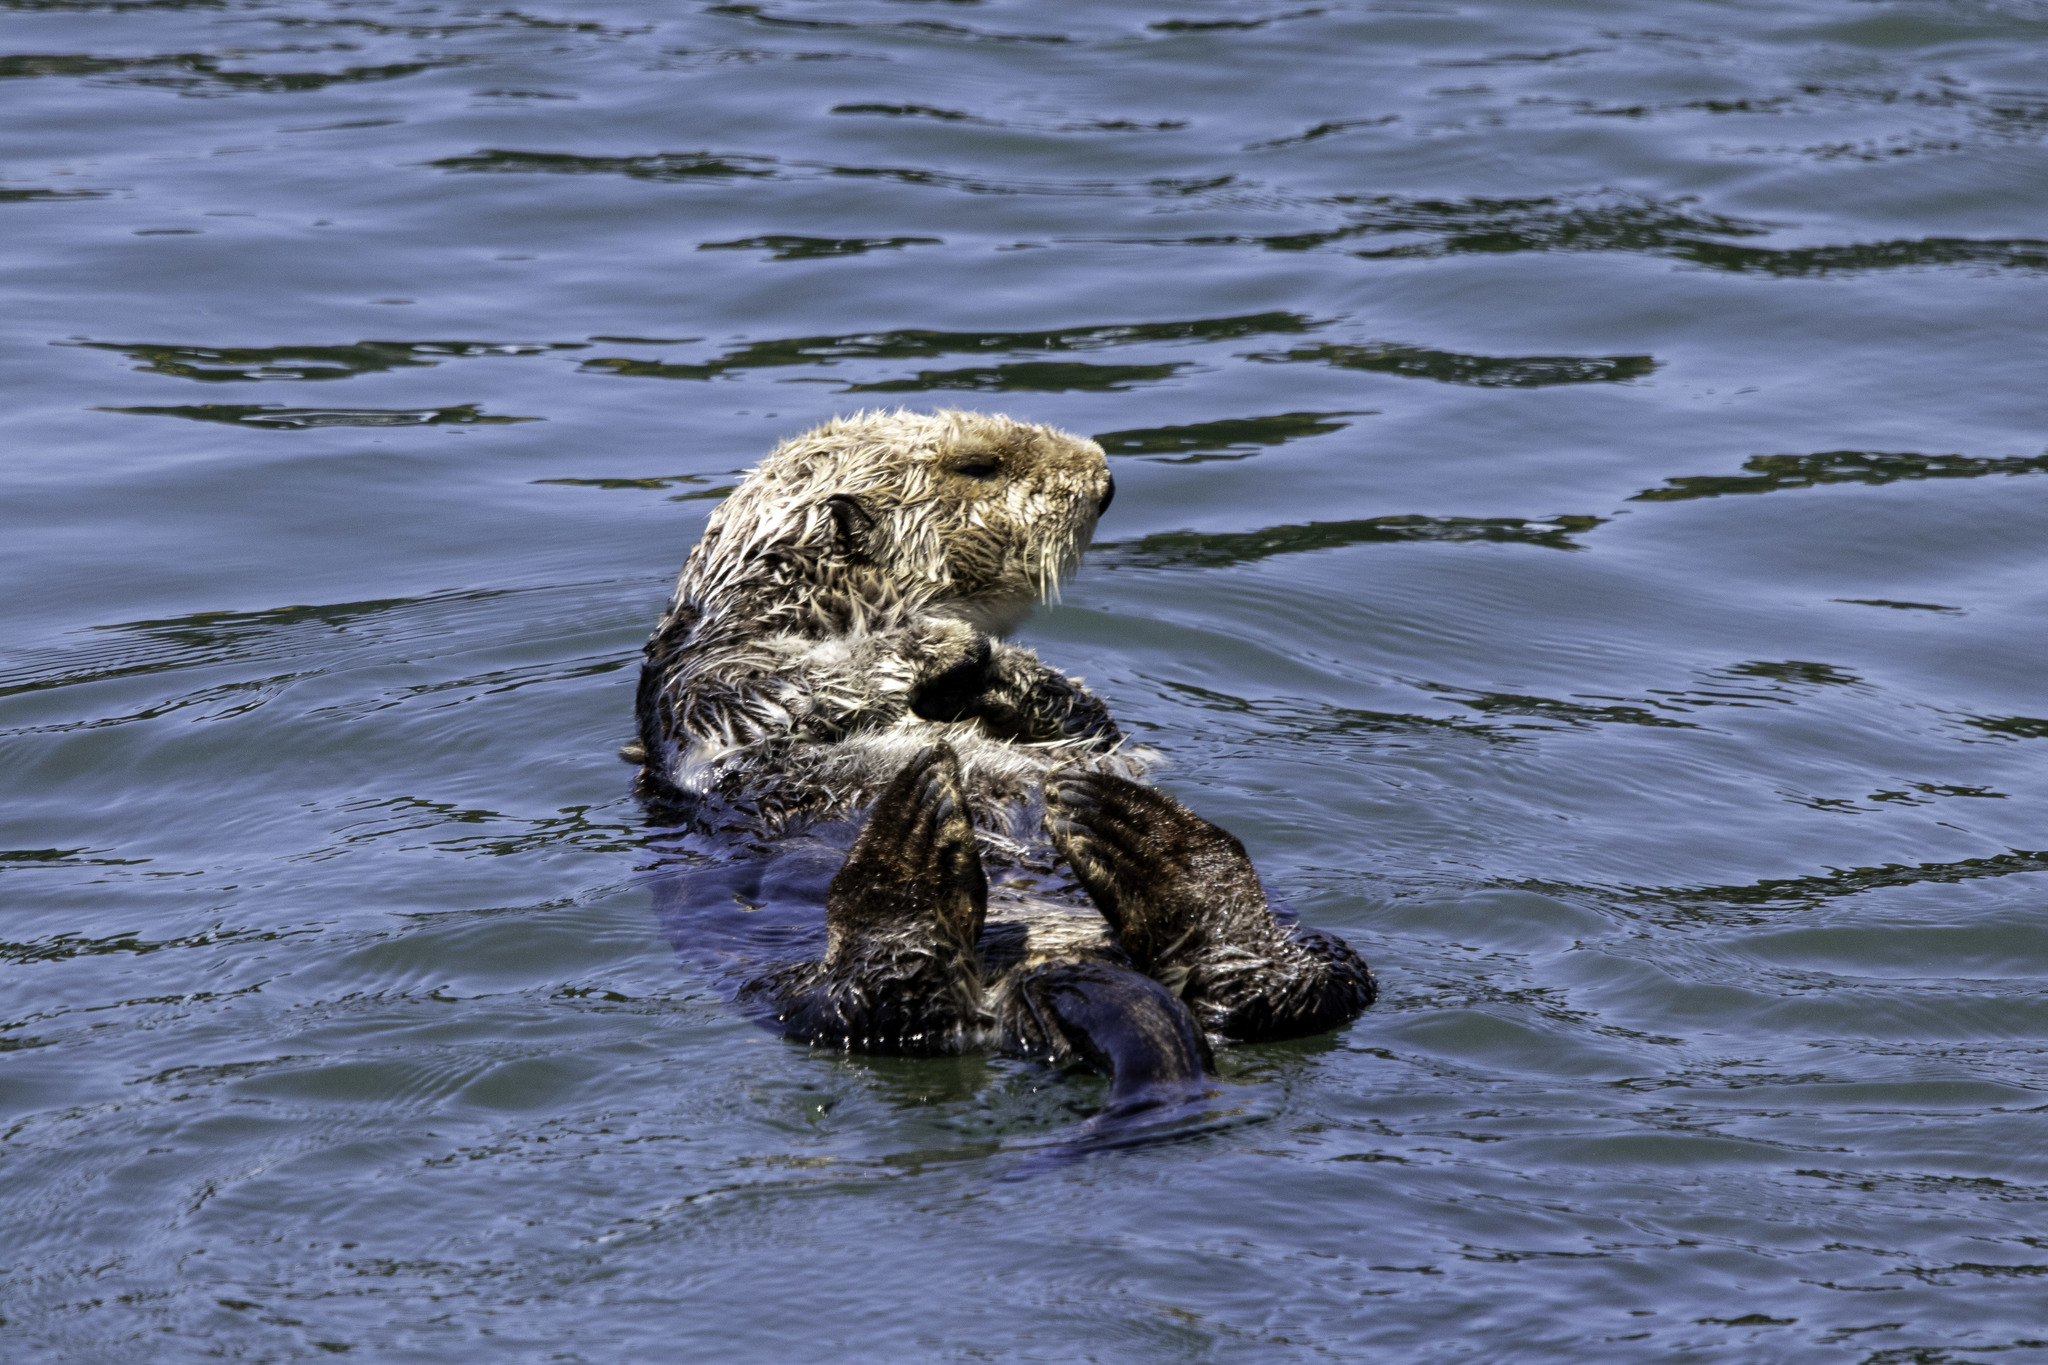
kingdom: Animalia
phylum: Chordata
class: Mammalia
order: Carnivora
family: Mustelidae
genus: Enhydra
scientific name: Enhydra lutris
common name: Sea otter
